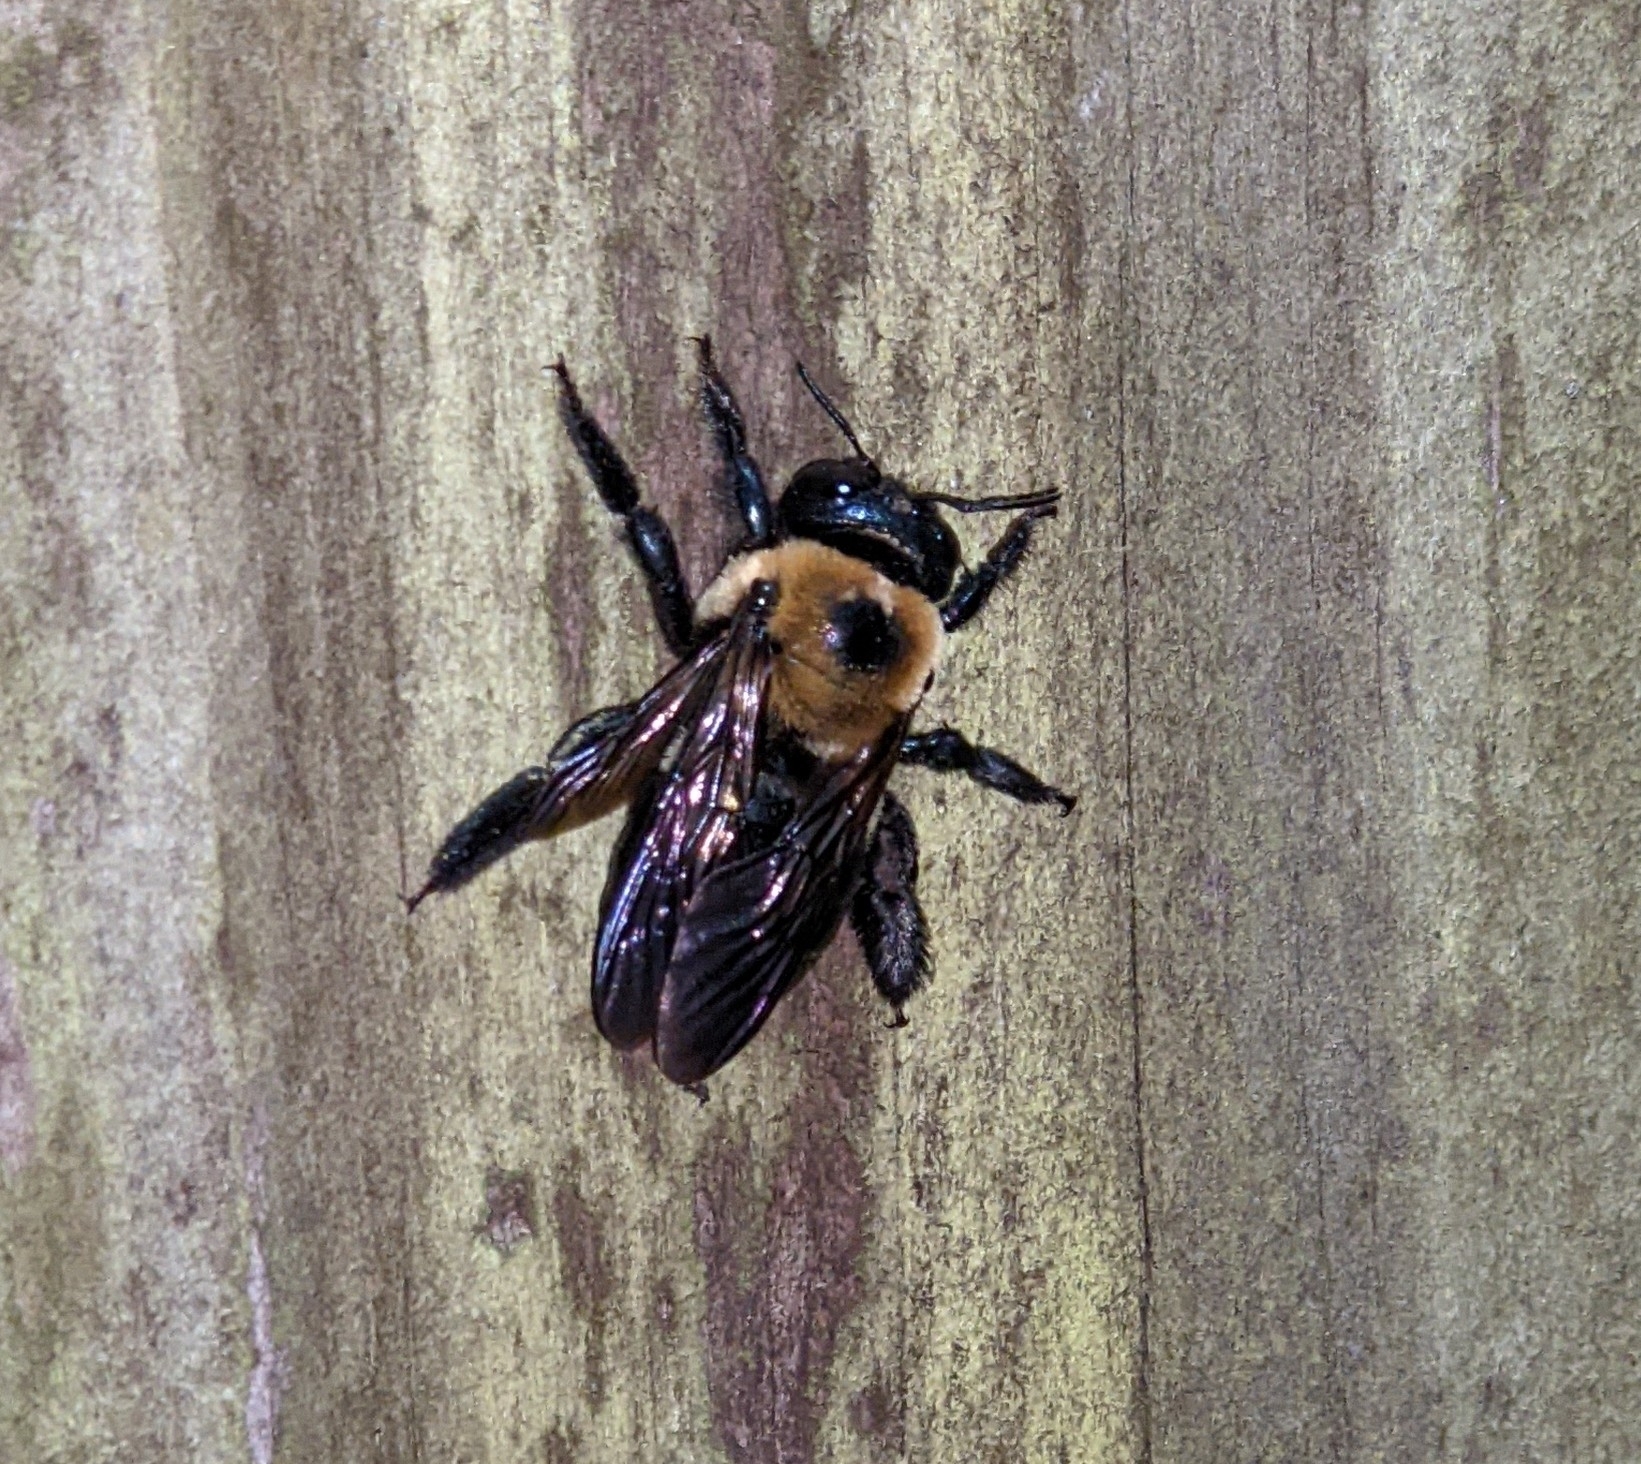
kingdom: Animalia
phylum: Arthropoda
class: Insecta
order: Hymenoptera
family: Apidae
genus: Xylocopa
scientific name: Xylocopa virginica
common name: Carpenter bee
